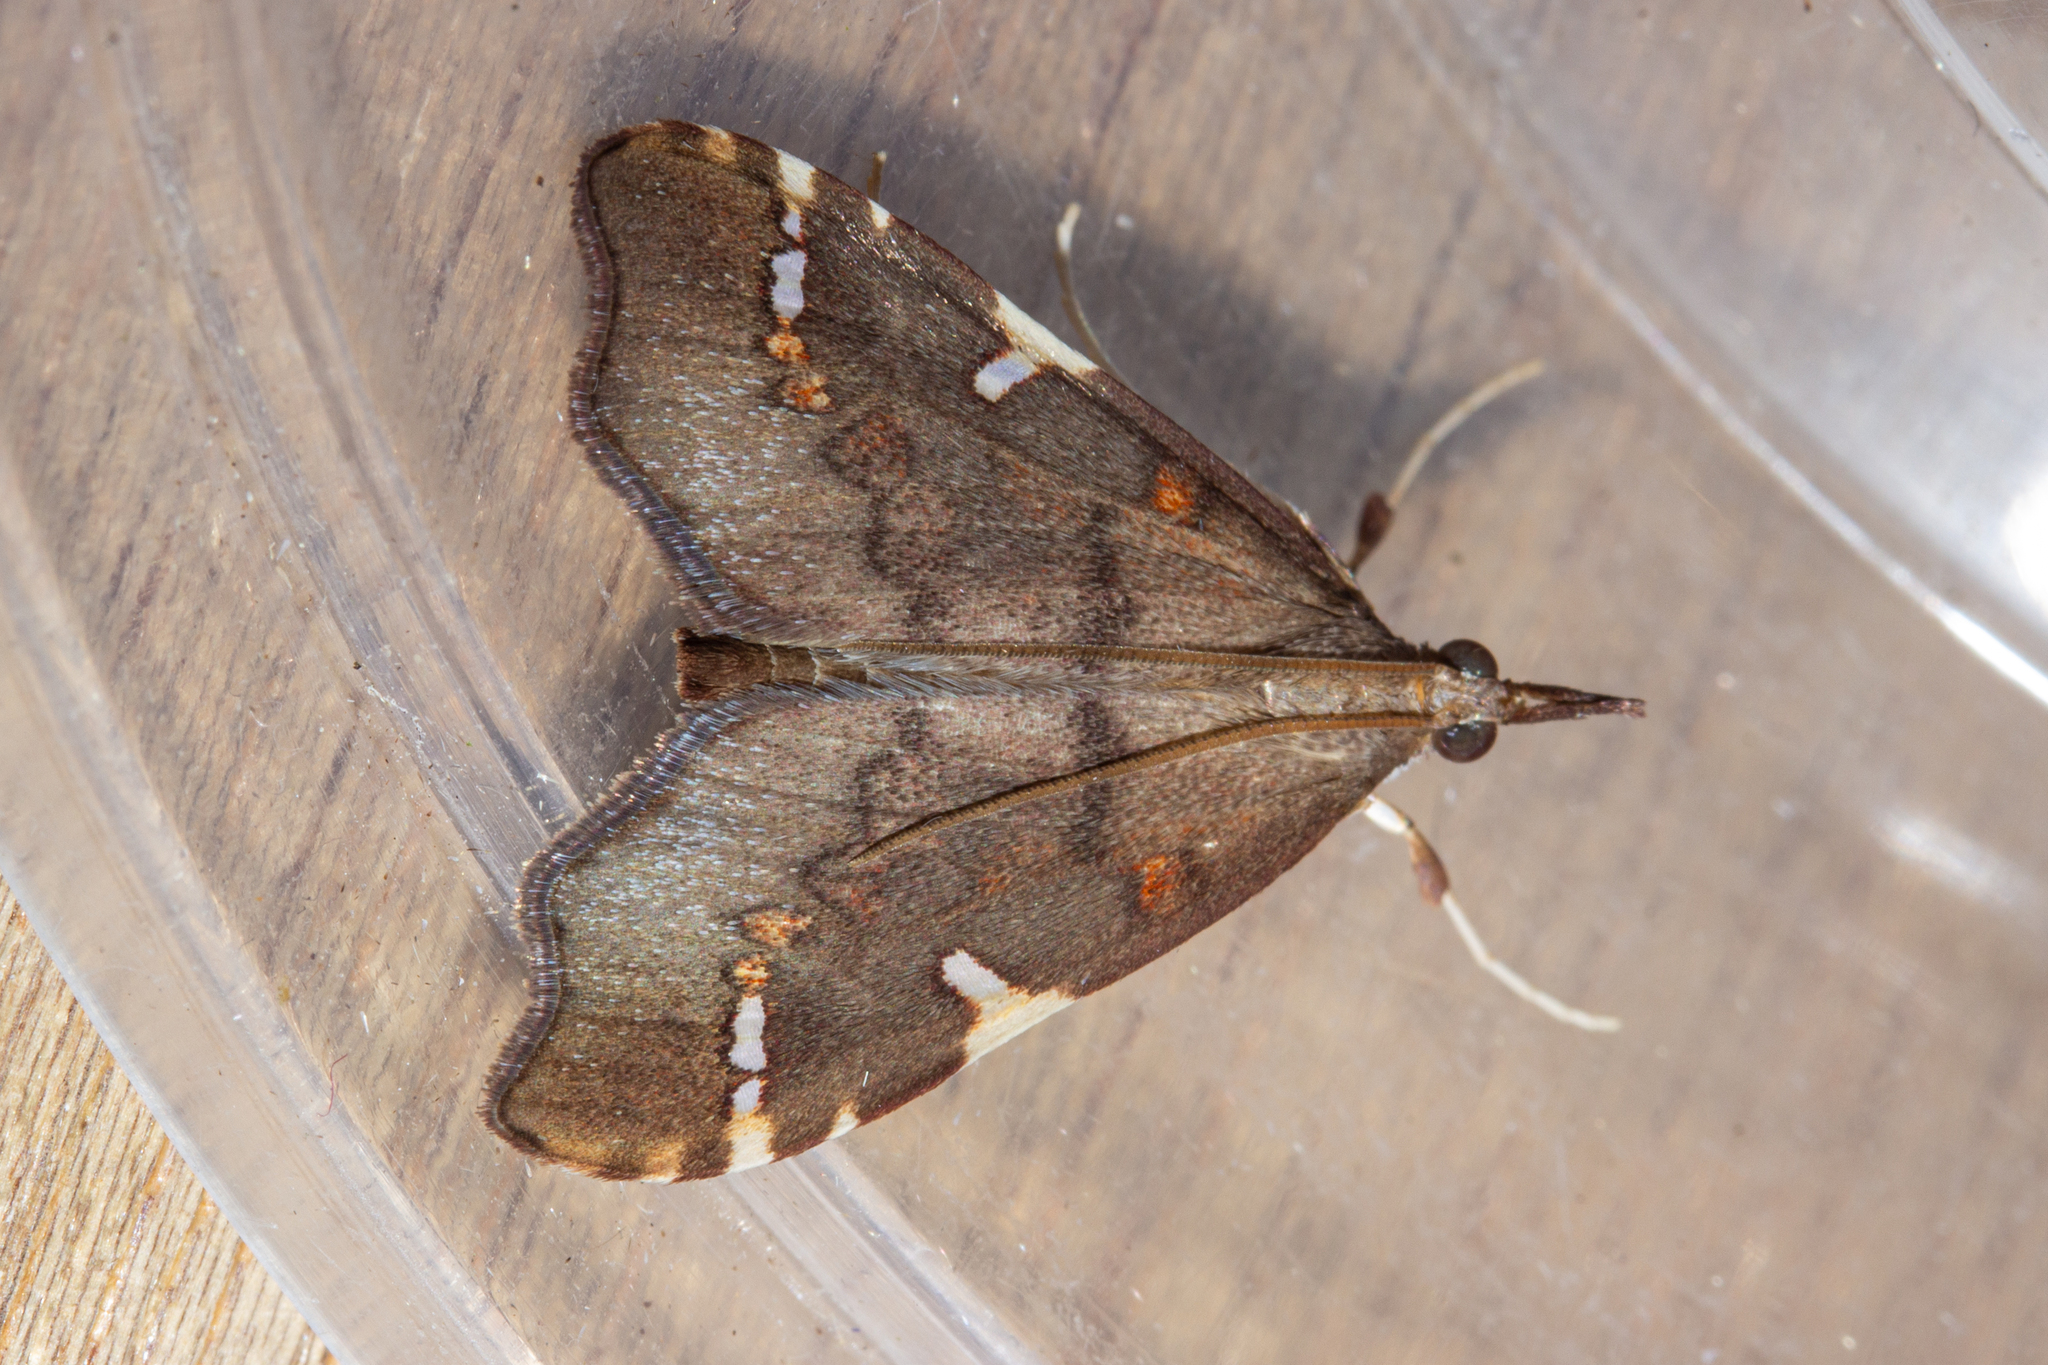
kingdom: Animalia
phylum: Arthropoda
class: Insecta
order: Lepidoptera
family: Crambidae
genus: Deana
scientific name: Deana hybreasalis
